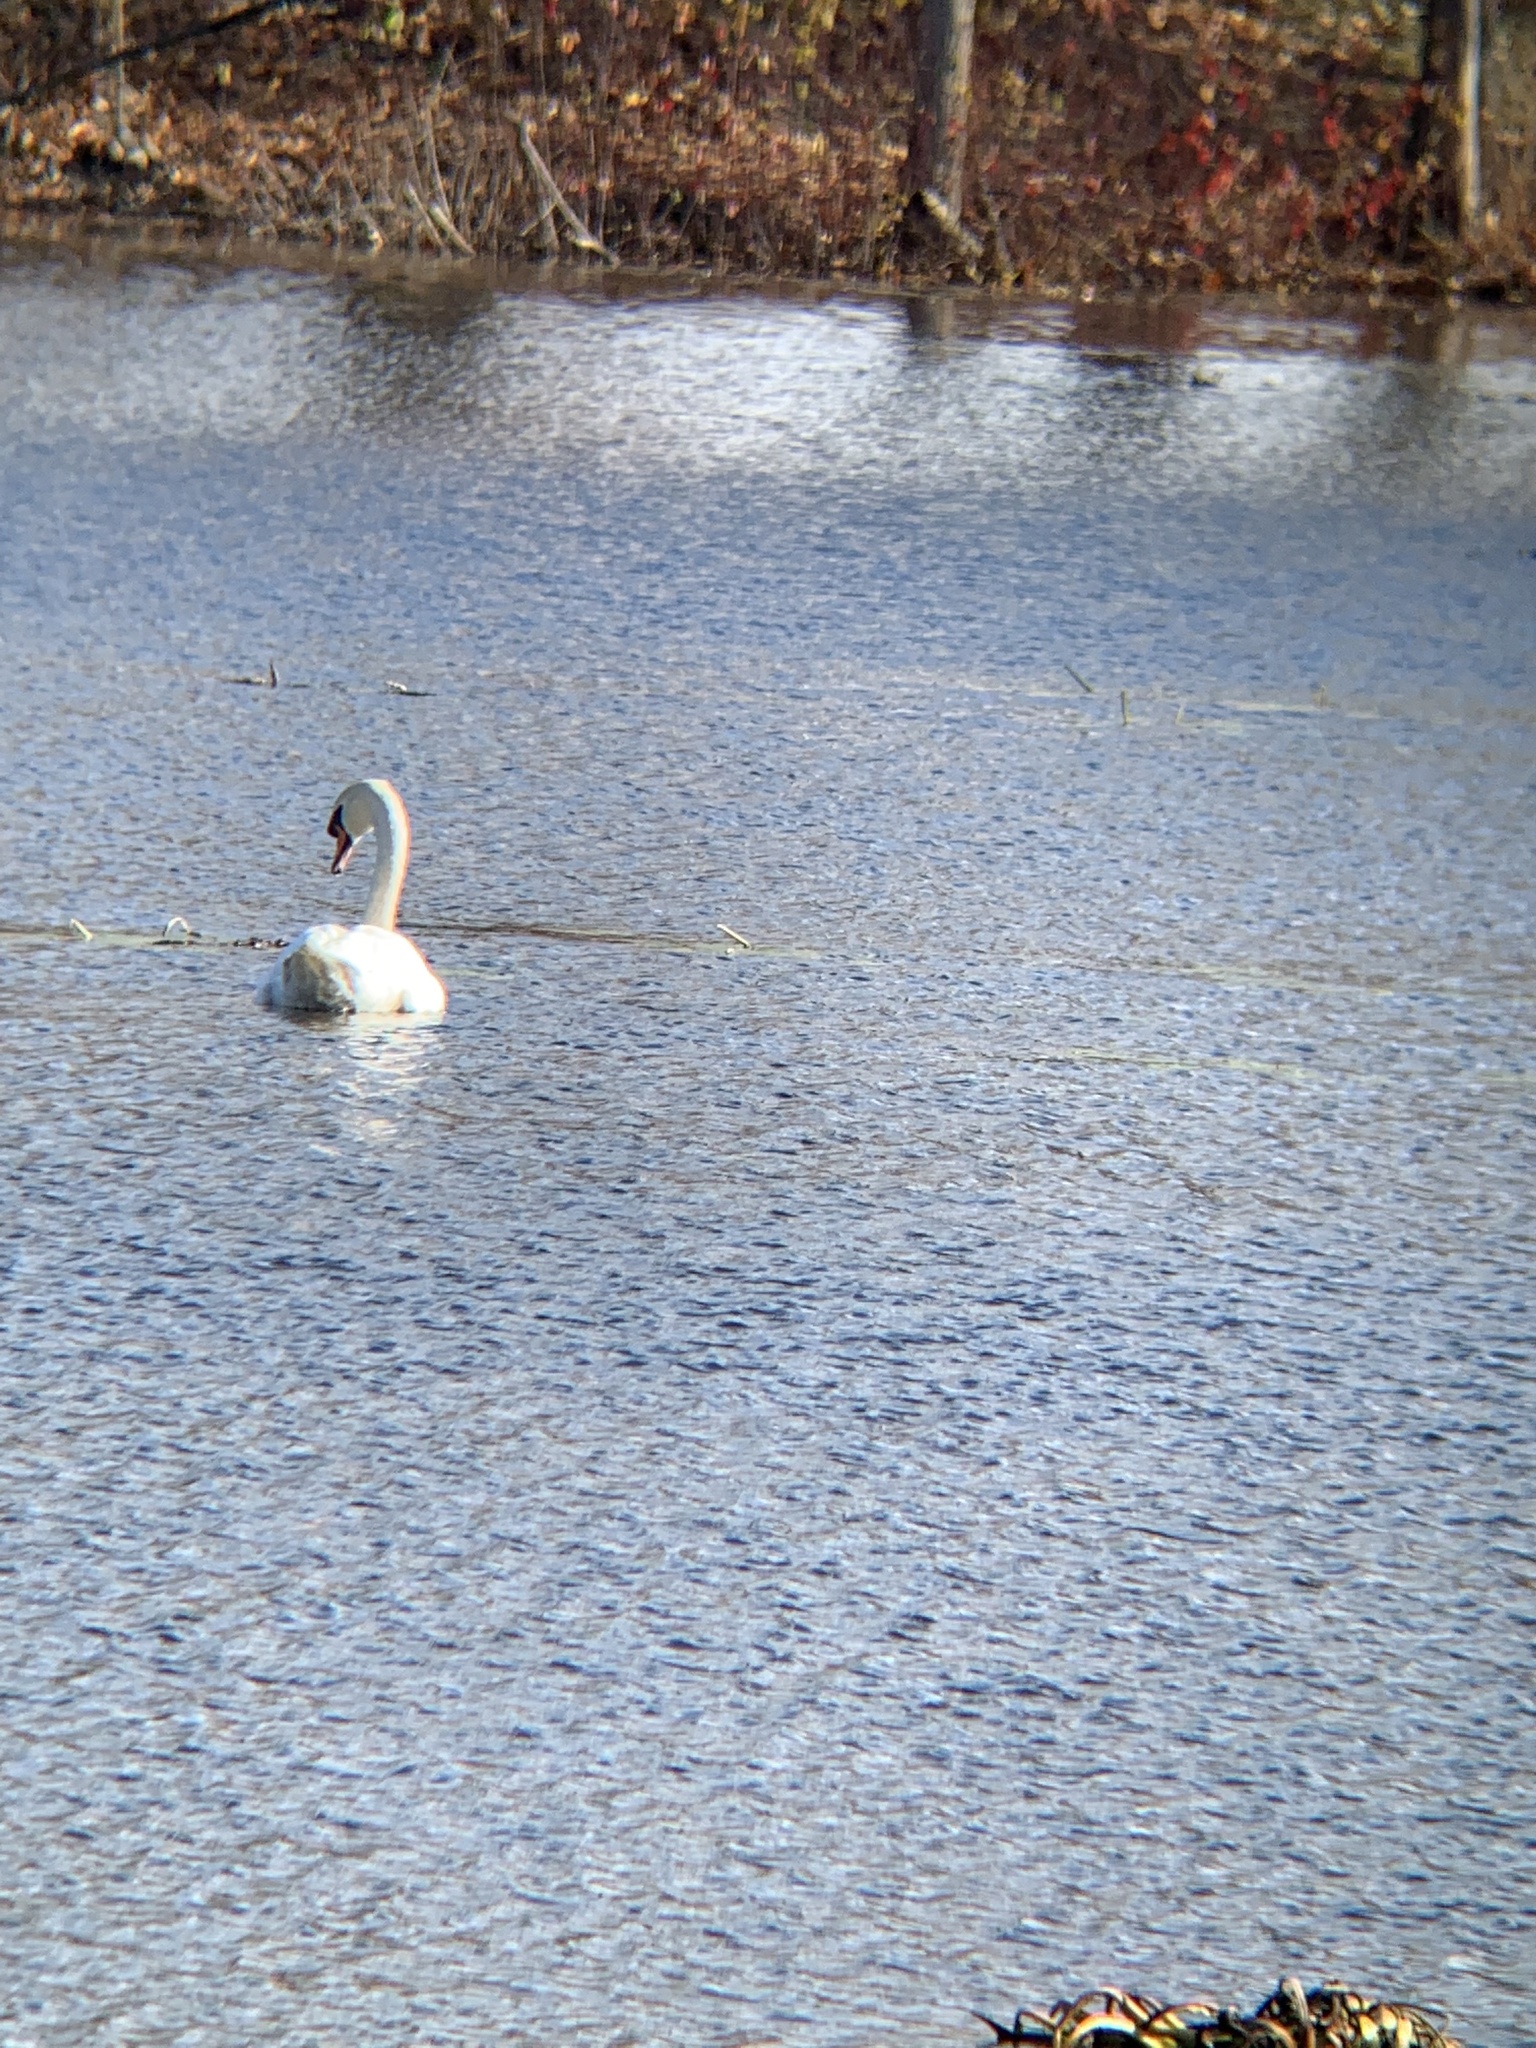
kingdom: Animalia
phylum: Chordata
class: Aves
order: Anseriformes
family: Anatidae
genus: Cygnus
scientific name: Cygnus olor
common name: Mute swan
